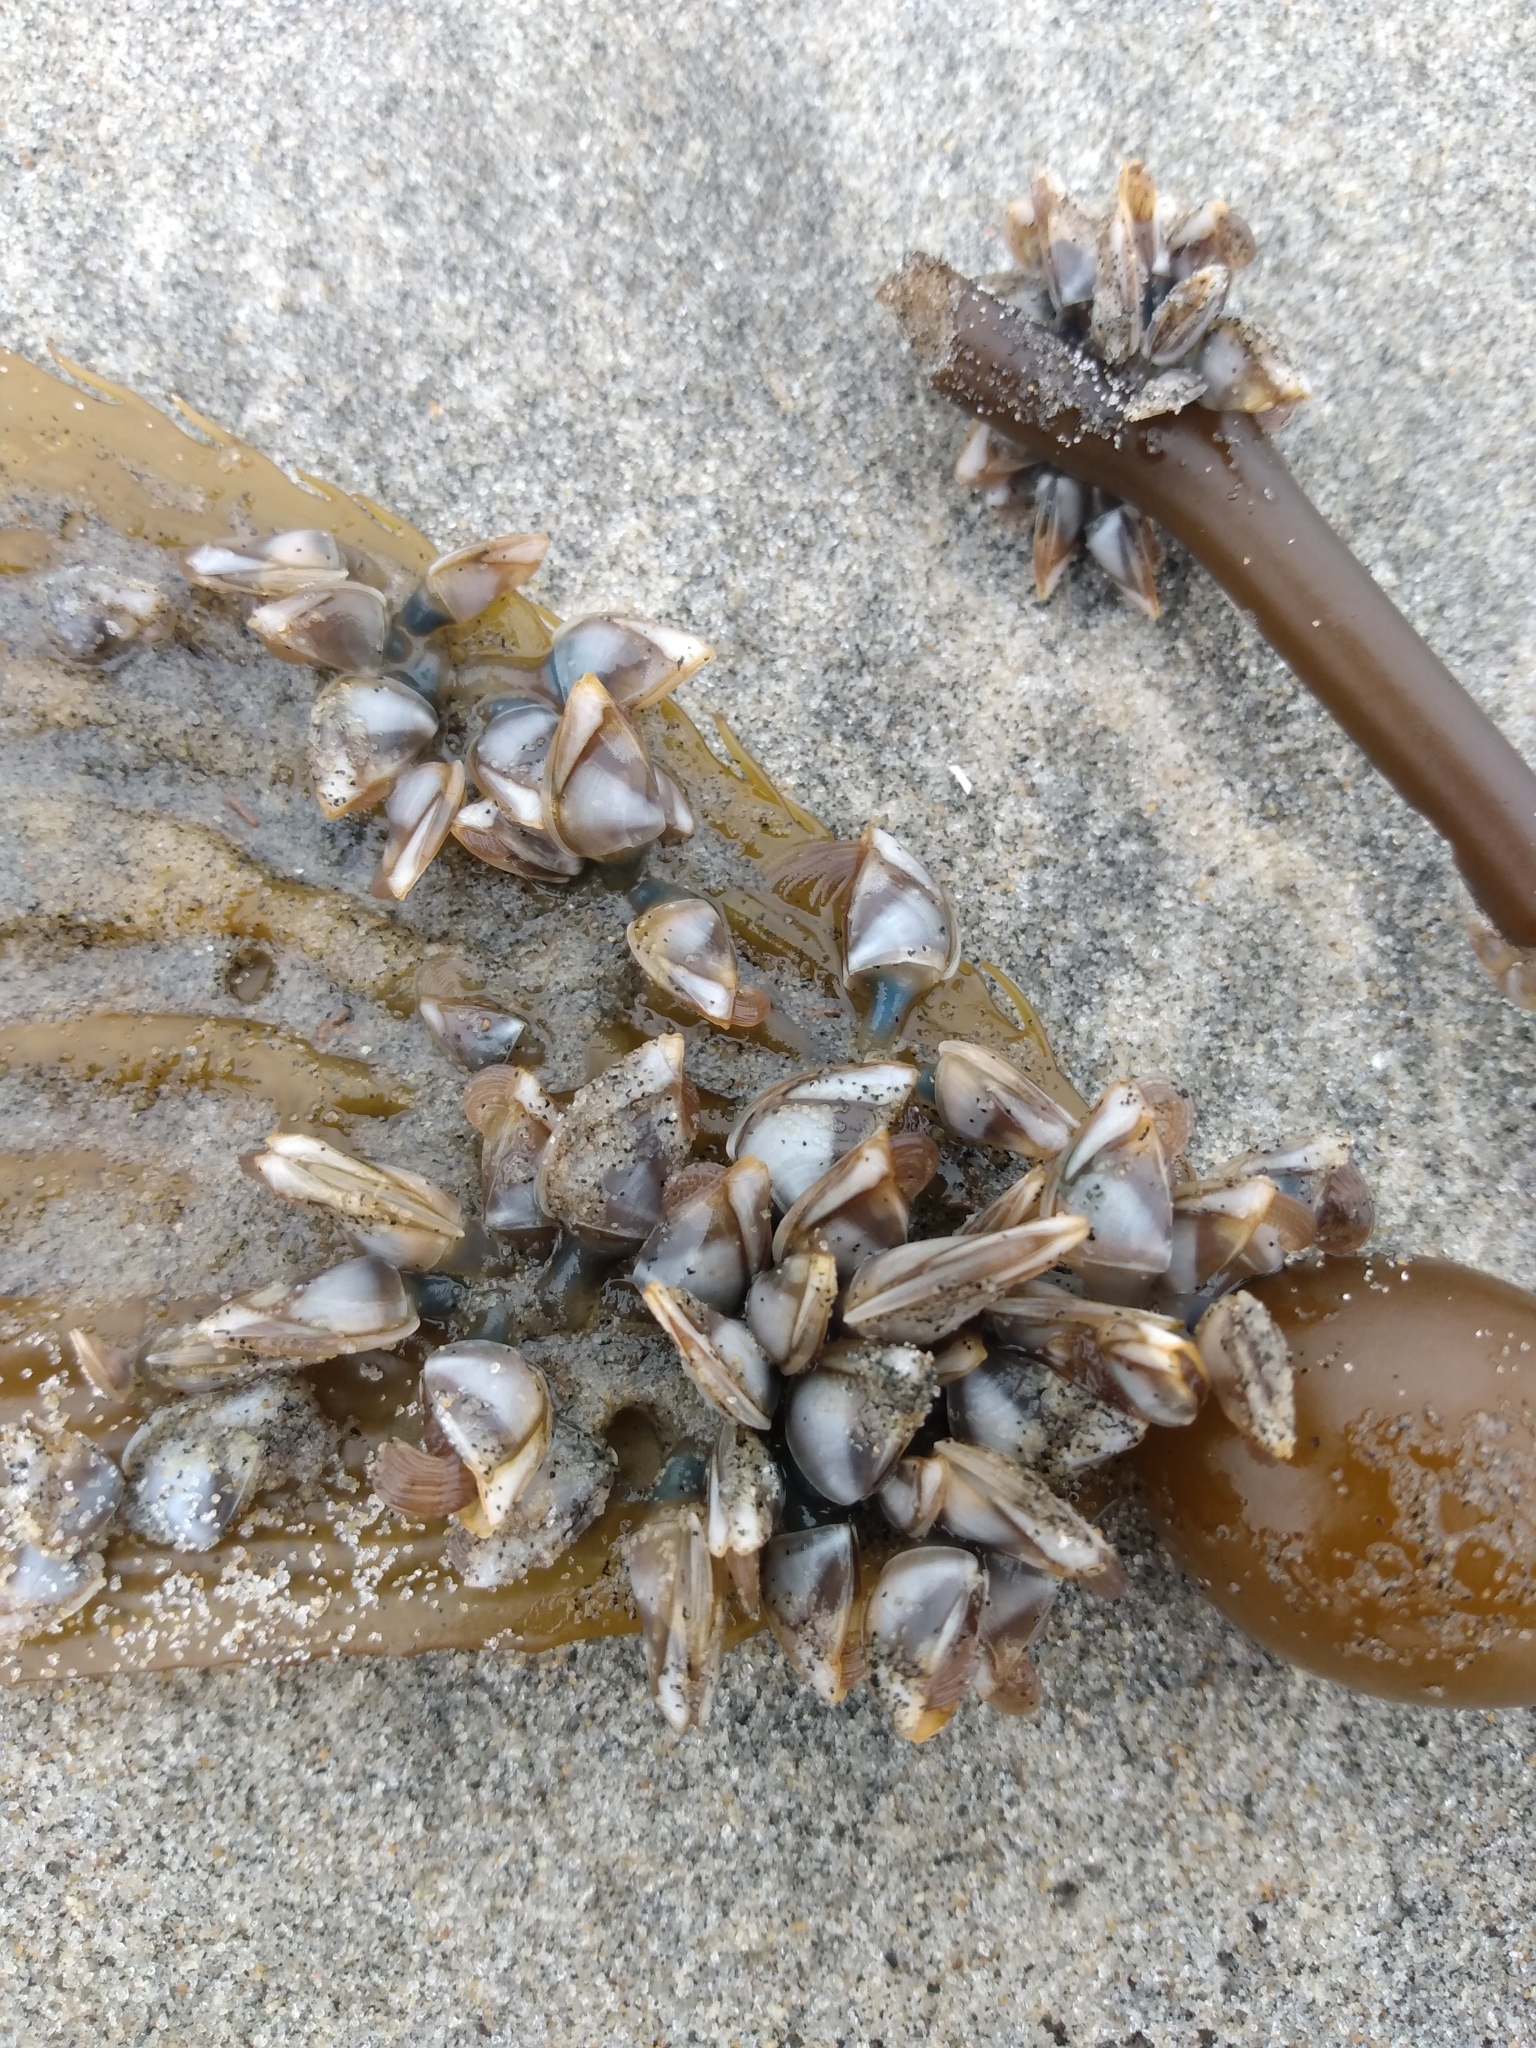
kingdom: Animalia
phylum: Arthropoda
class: Maxillopoda
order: Pedunculata
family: Lepadidae
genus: Lepas
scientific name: Lepas pacifica
